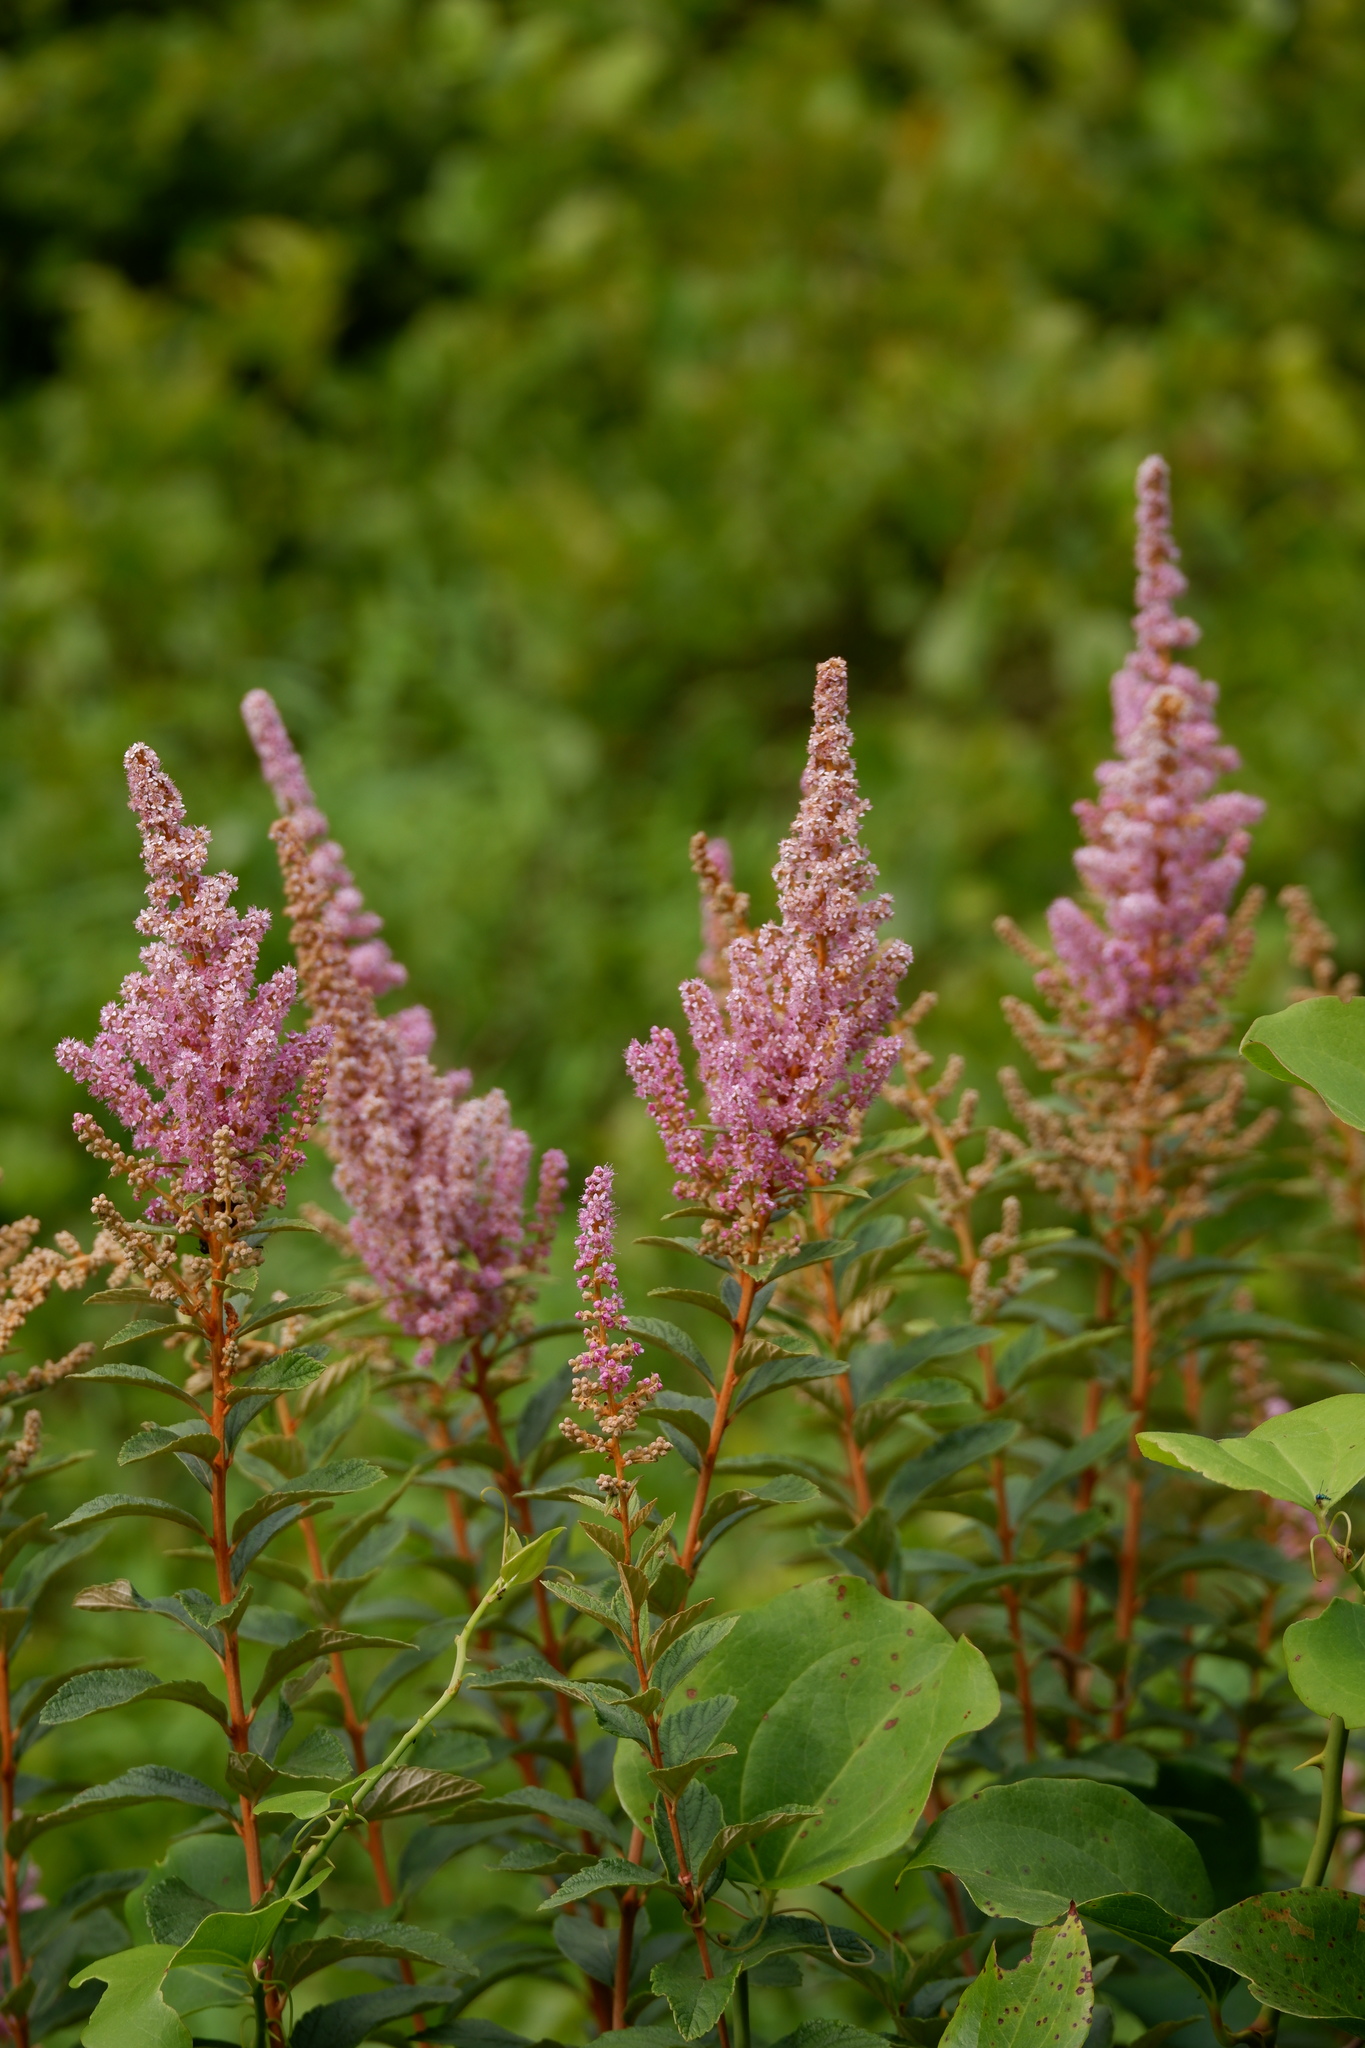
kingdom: Plantae
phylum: Tracheophyta
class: Magnoliopsida
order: Rosales
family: Rosaceae
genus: Spiraea
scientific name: Spiraea tomentosa
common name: Hardhack
